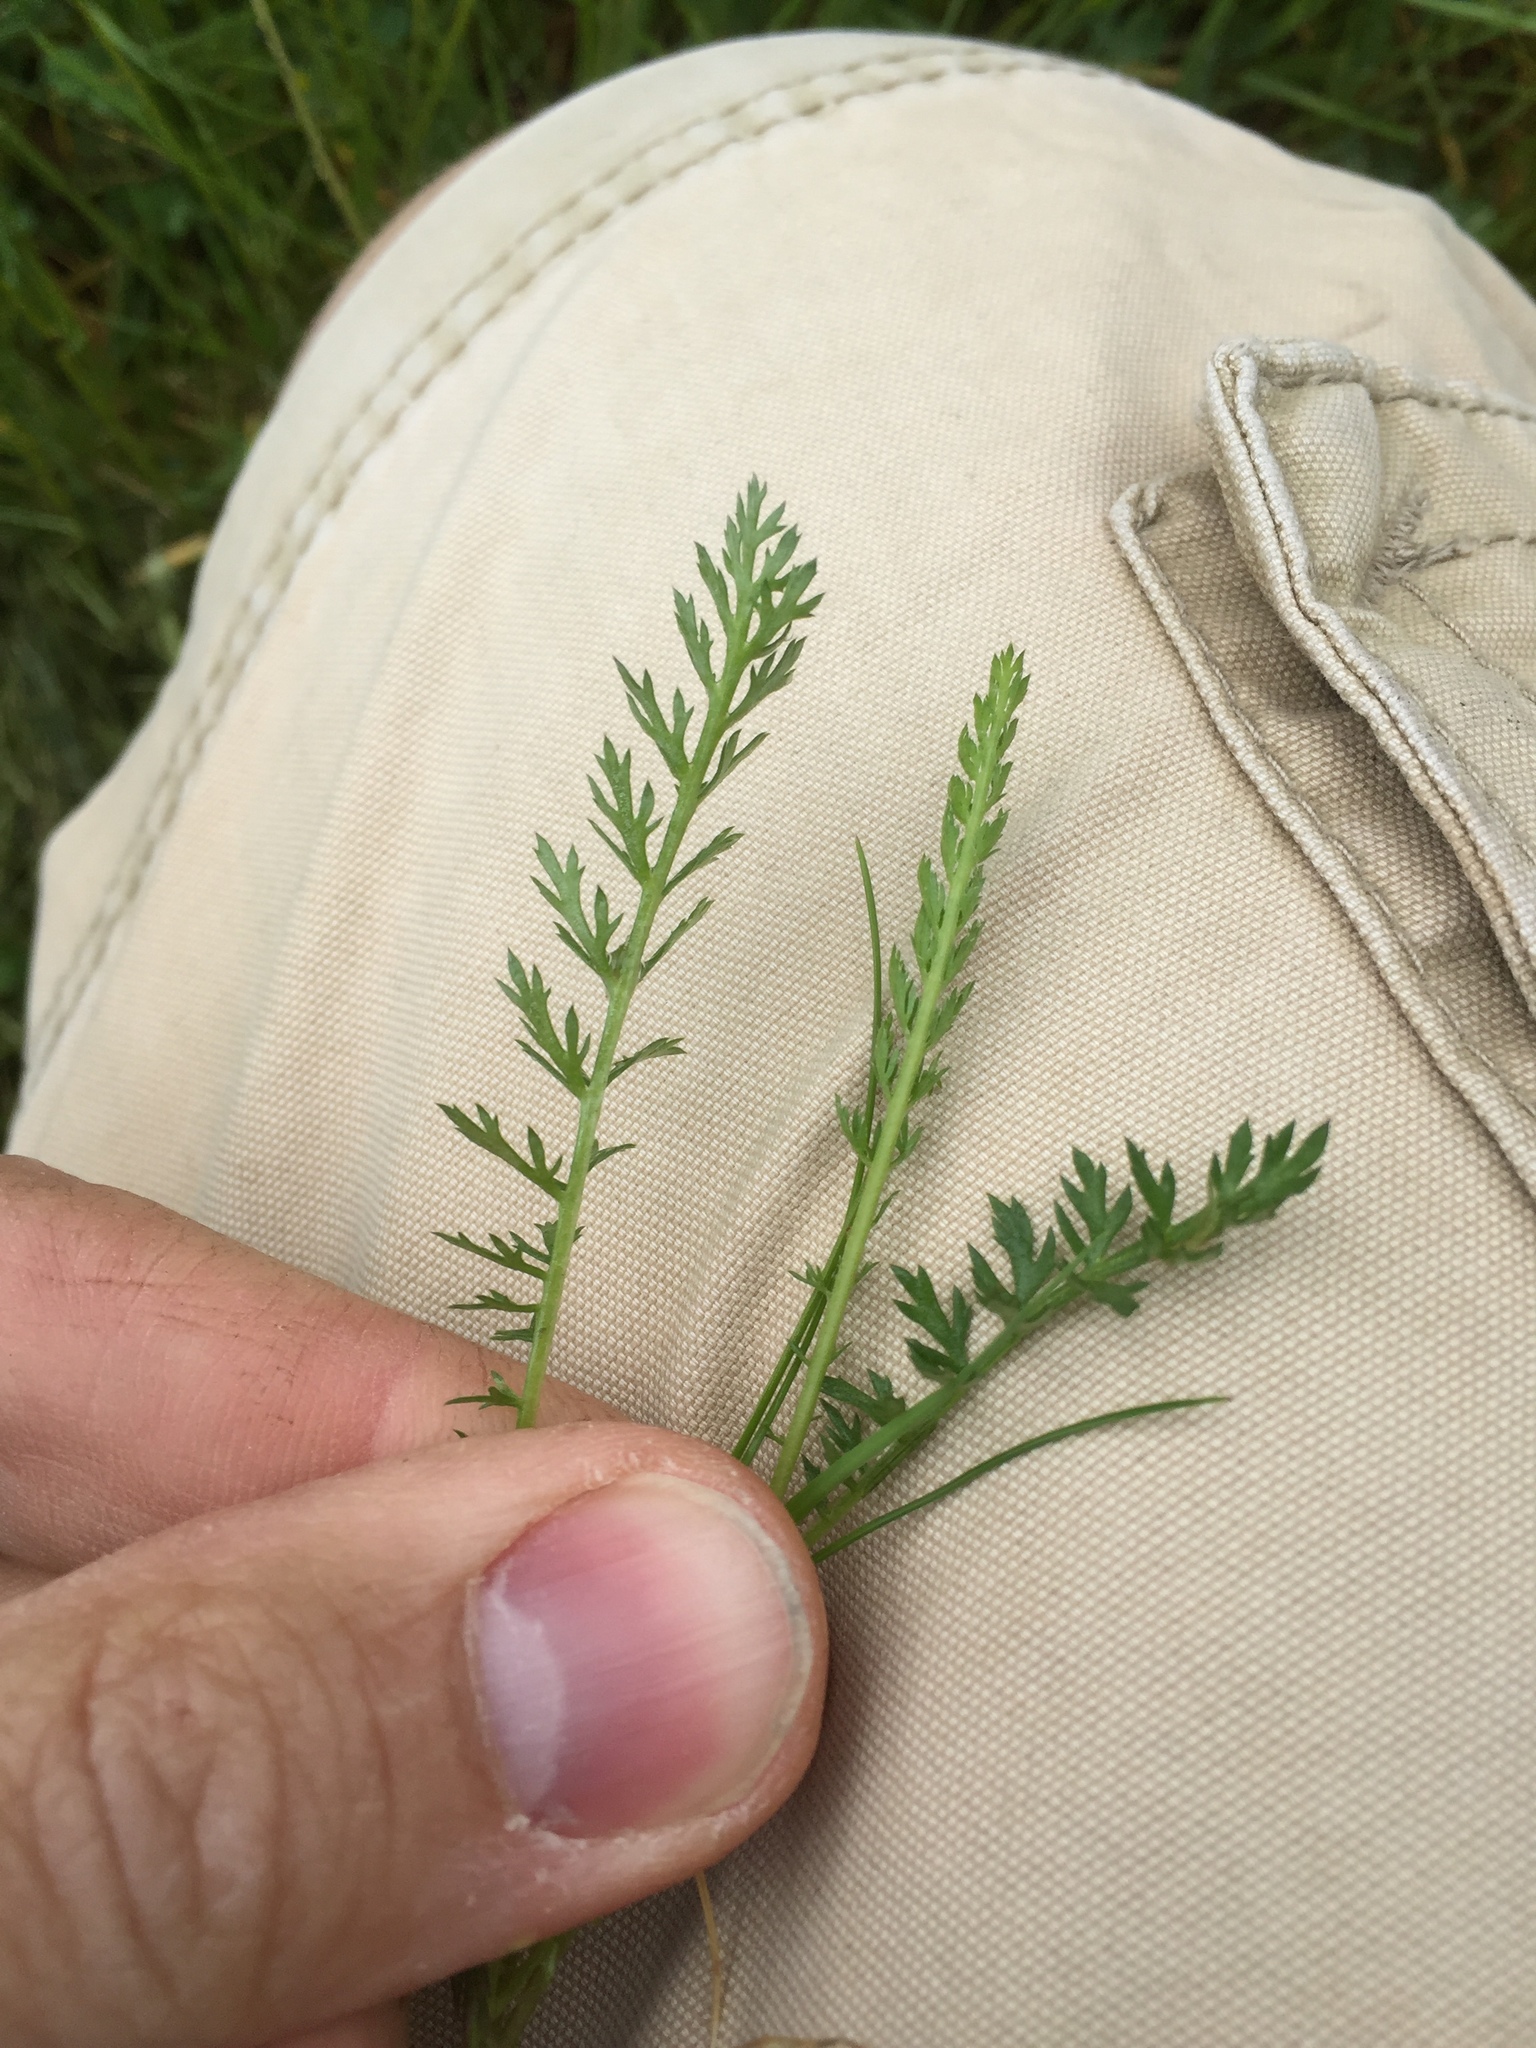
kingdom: Plantae
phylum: Tracheophyta
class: Magnoliopsida
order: Asterales
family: Asteraceae
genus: Achillea
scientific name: Achillea millefolium
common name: Yarrow
